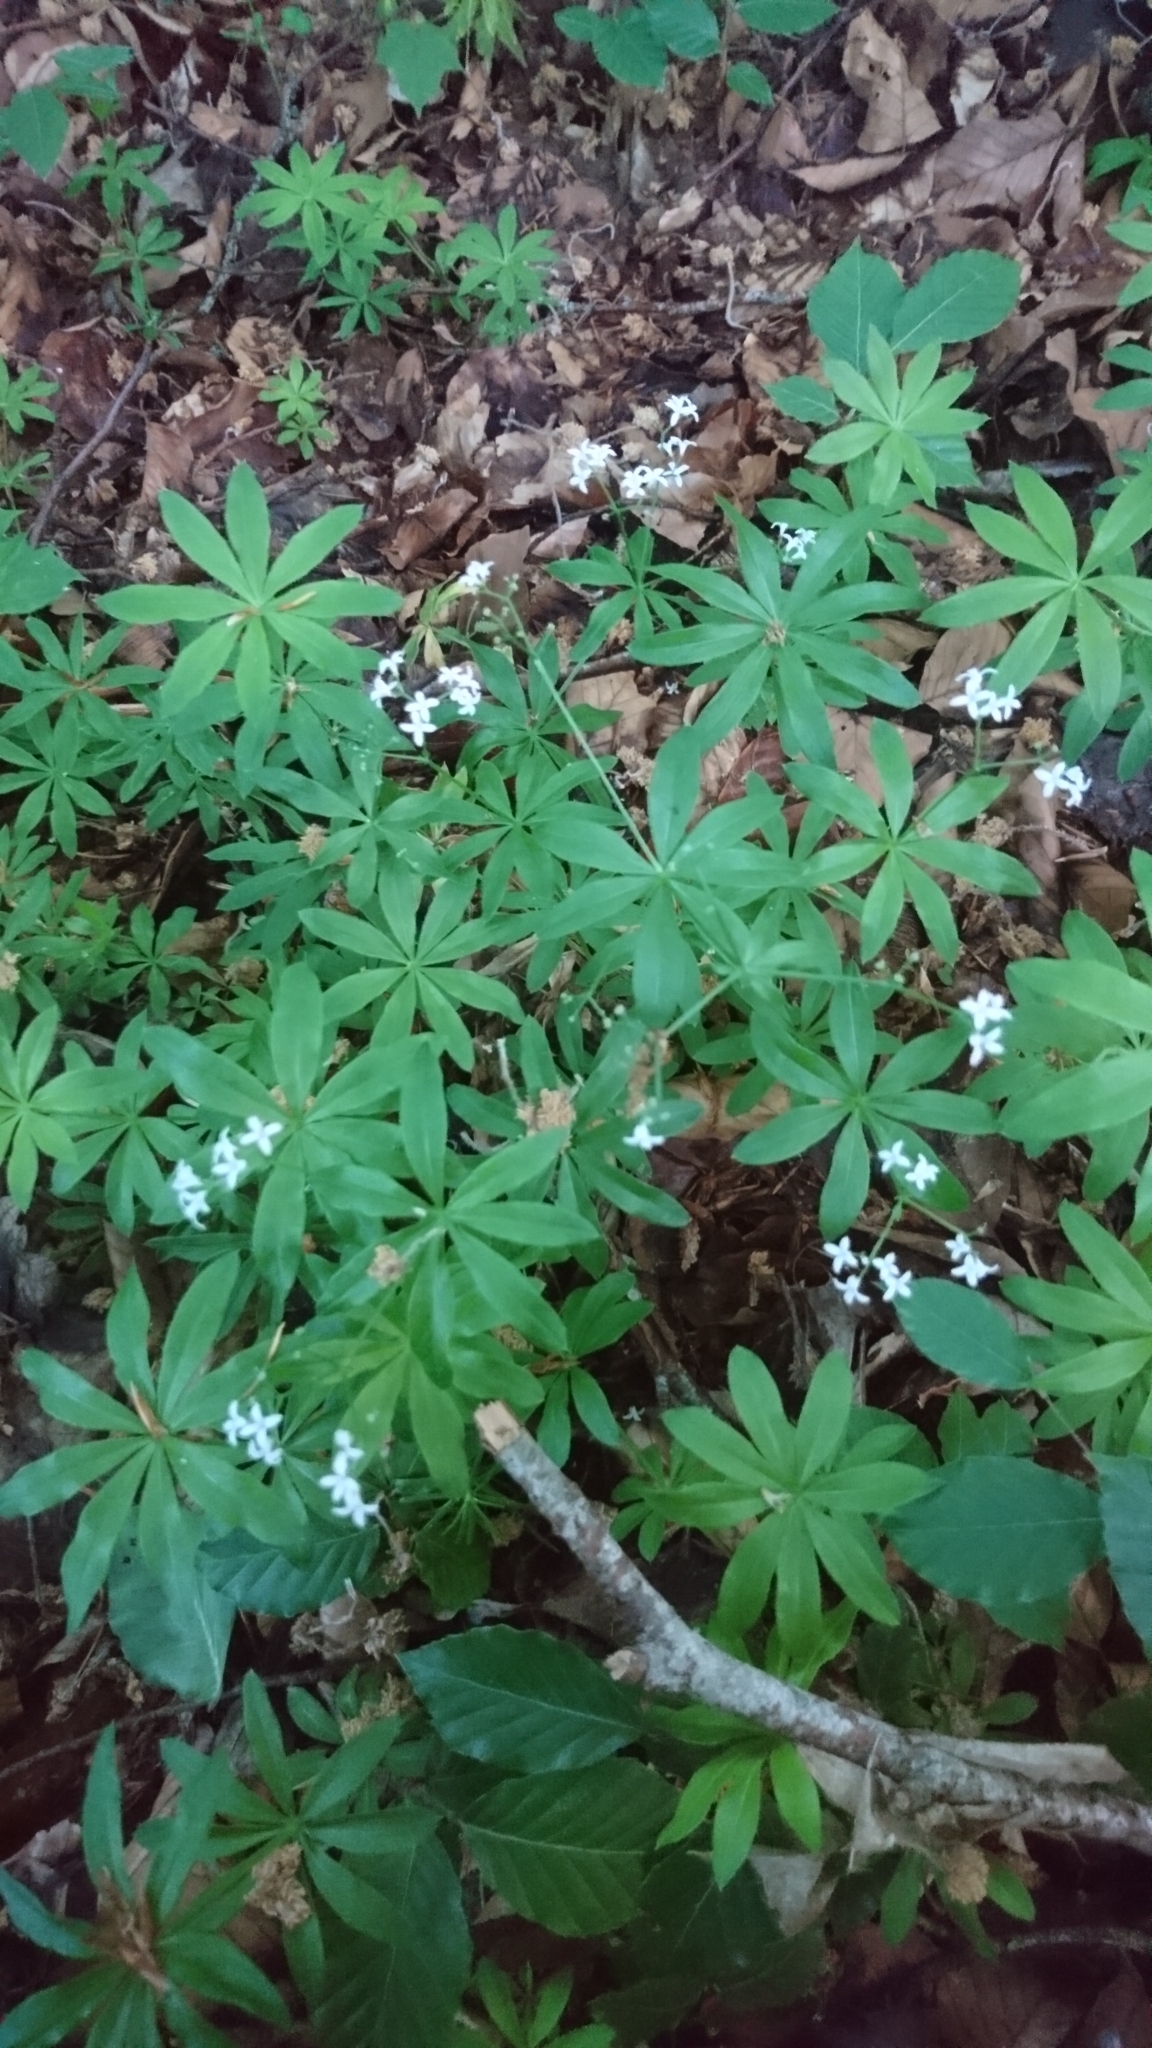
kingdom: Plantae
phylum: Tracheophyta
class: Magnoliopsida
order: Gentianales
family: Rubiaceae
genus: Galium
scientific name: Galium odoratum
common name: Sweet woodruff
